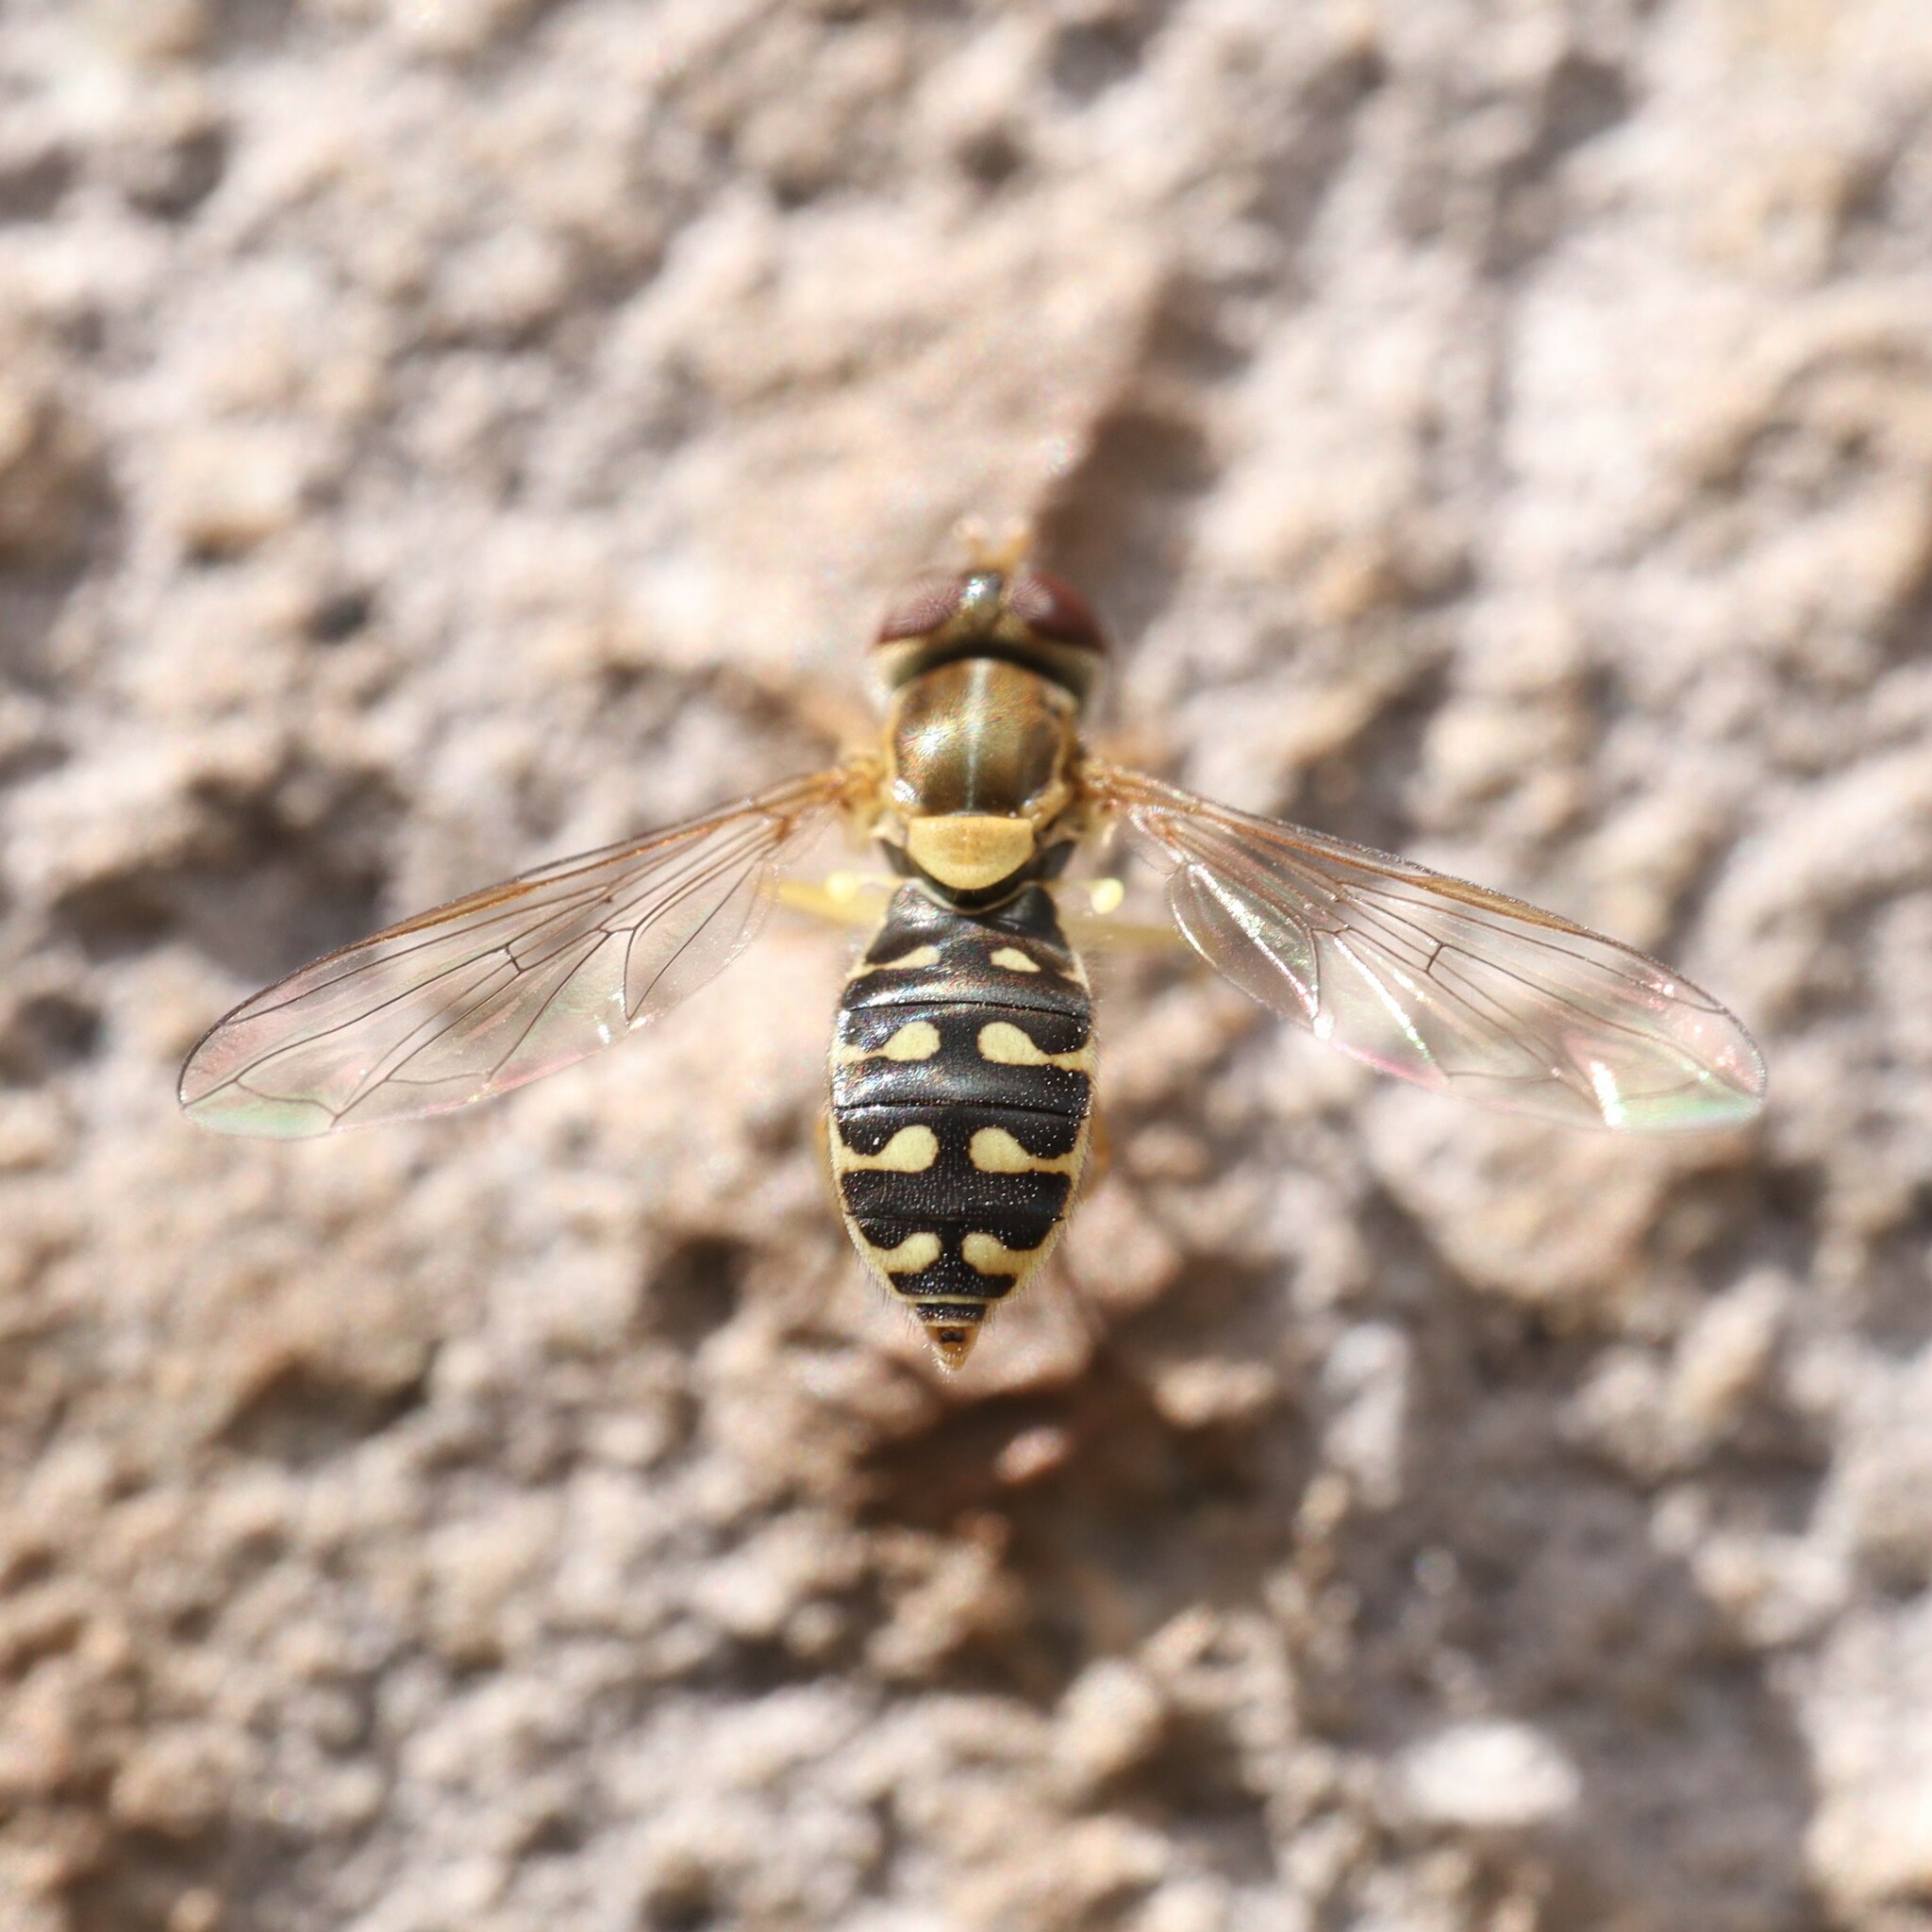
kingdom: Animalia
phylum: Arthropoda
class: Insecta
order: Diptera
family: Syrphidae
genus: Toxomerus
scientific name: Toxomerus vertebratus
